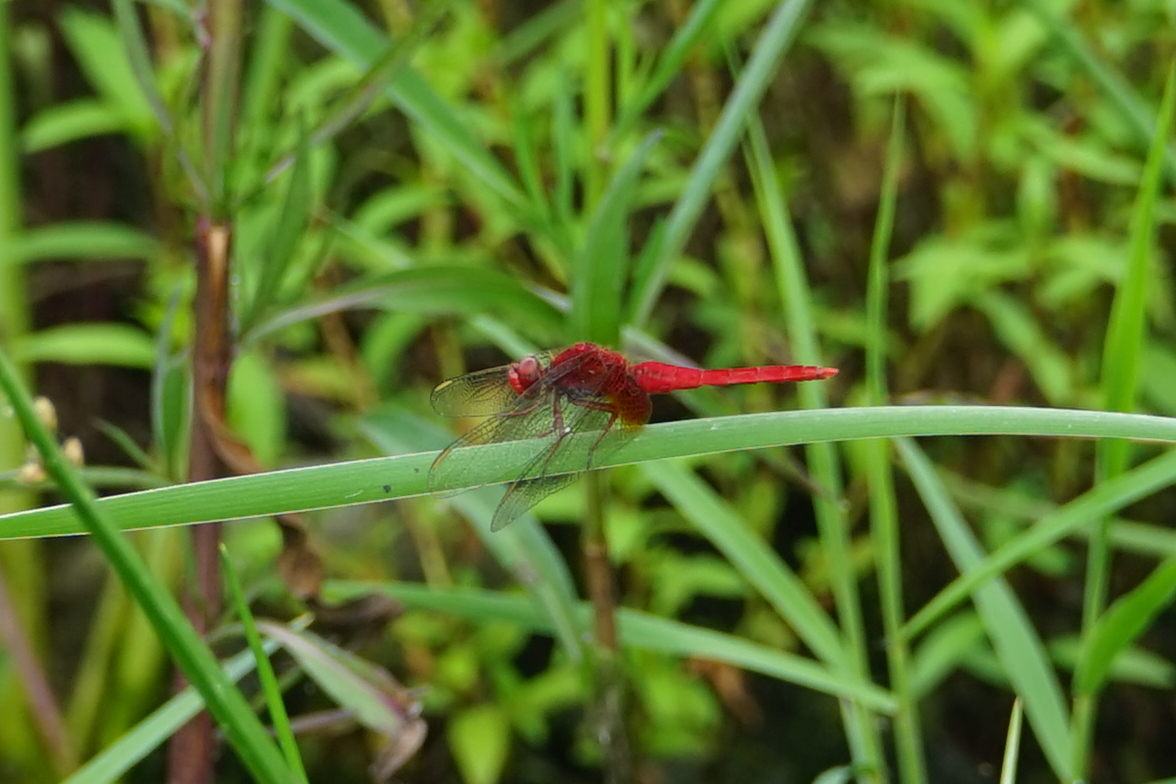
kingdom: Animalia
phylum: Arthropoda
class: Insecta
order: Odonata
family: Libellulidae
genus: Crocothemis
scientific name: Crocothemis servilia
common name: Scarlet skimmer
